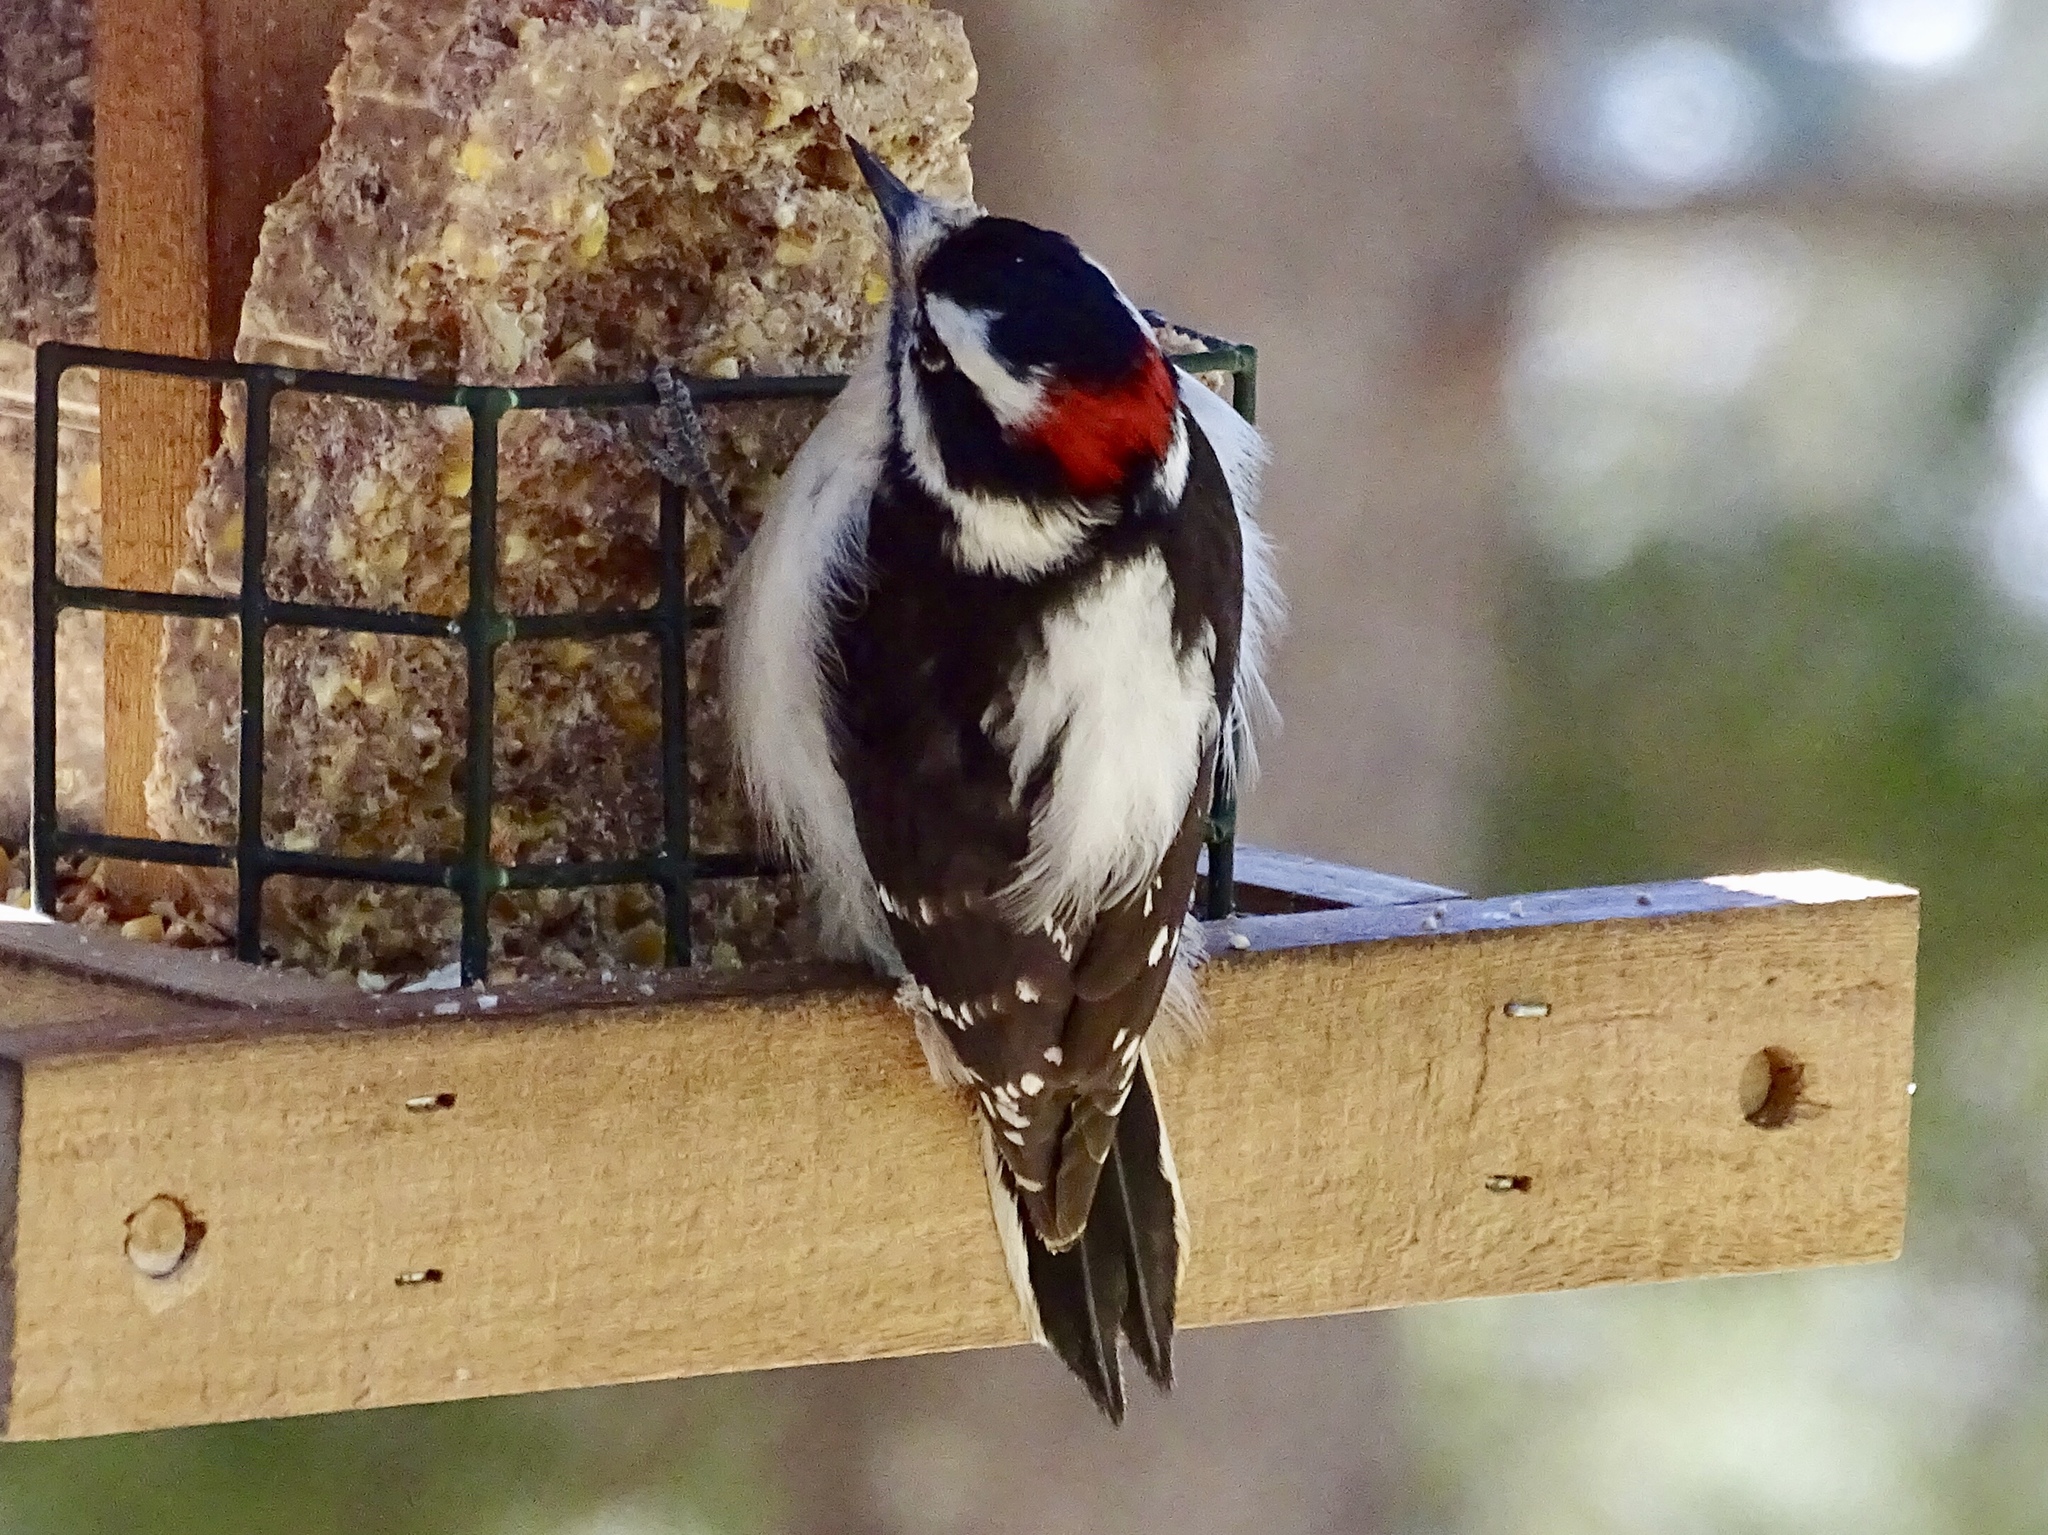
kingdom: Animalia
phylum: Chordata
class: Aves
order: Piciformes
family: Picidae
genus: Dryobates
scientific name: Dryobates pubescens
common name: Downy woodpecker
